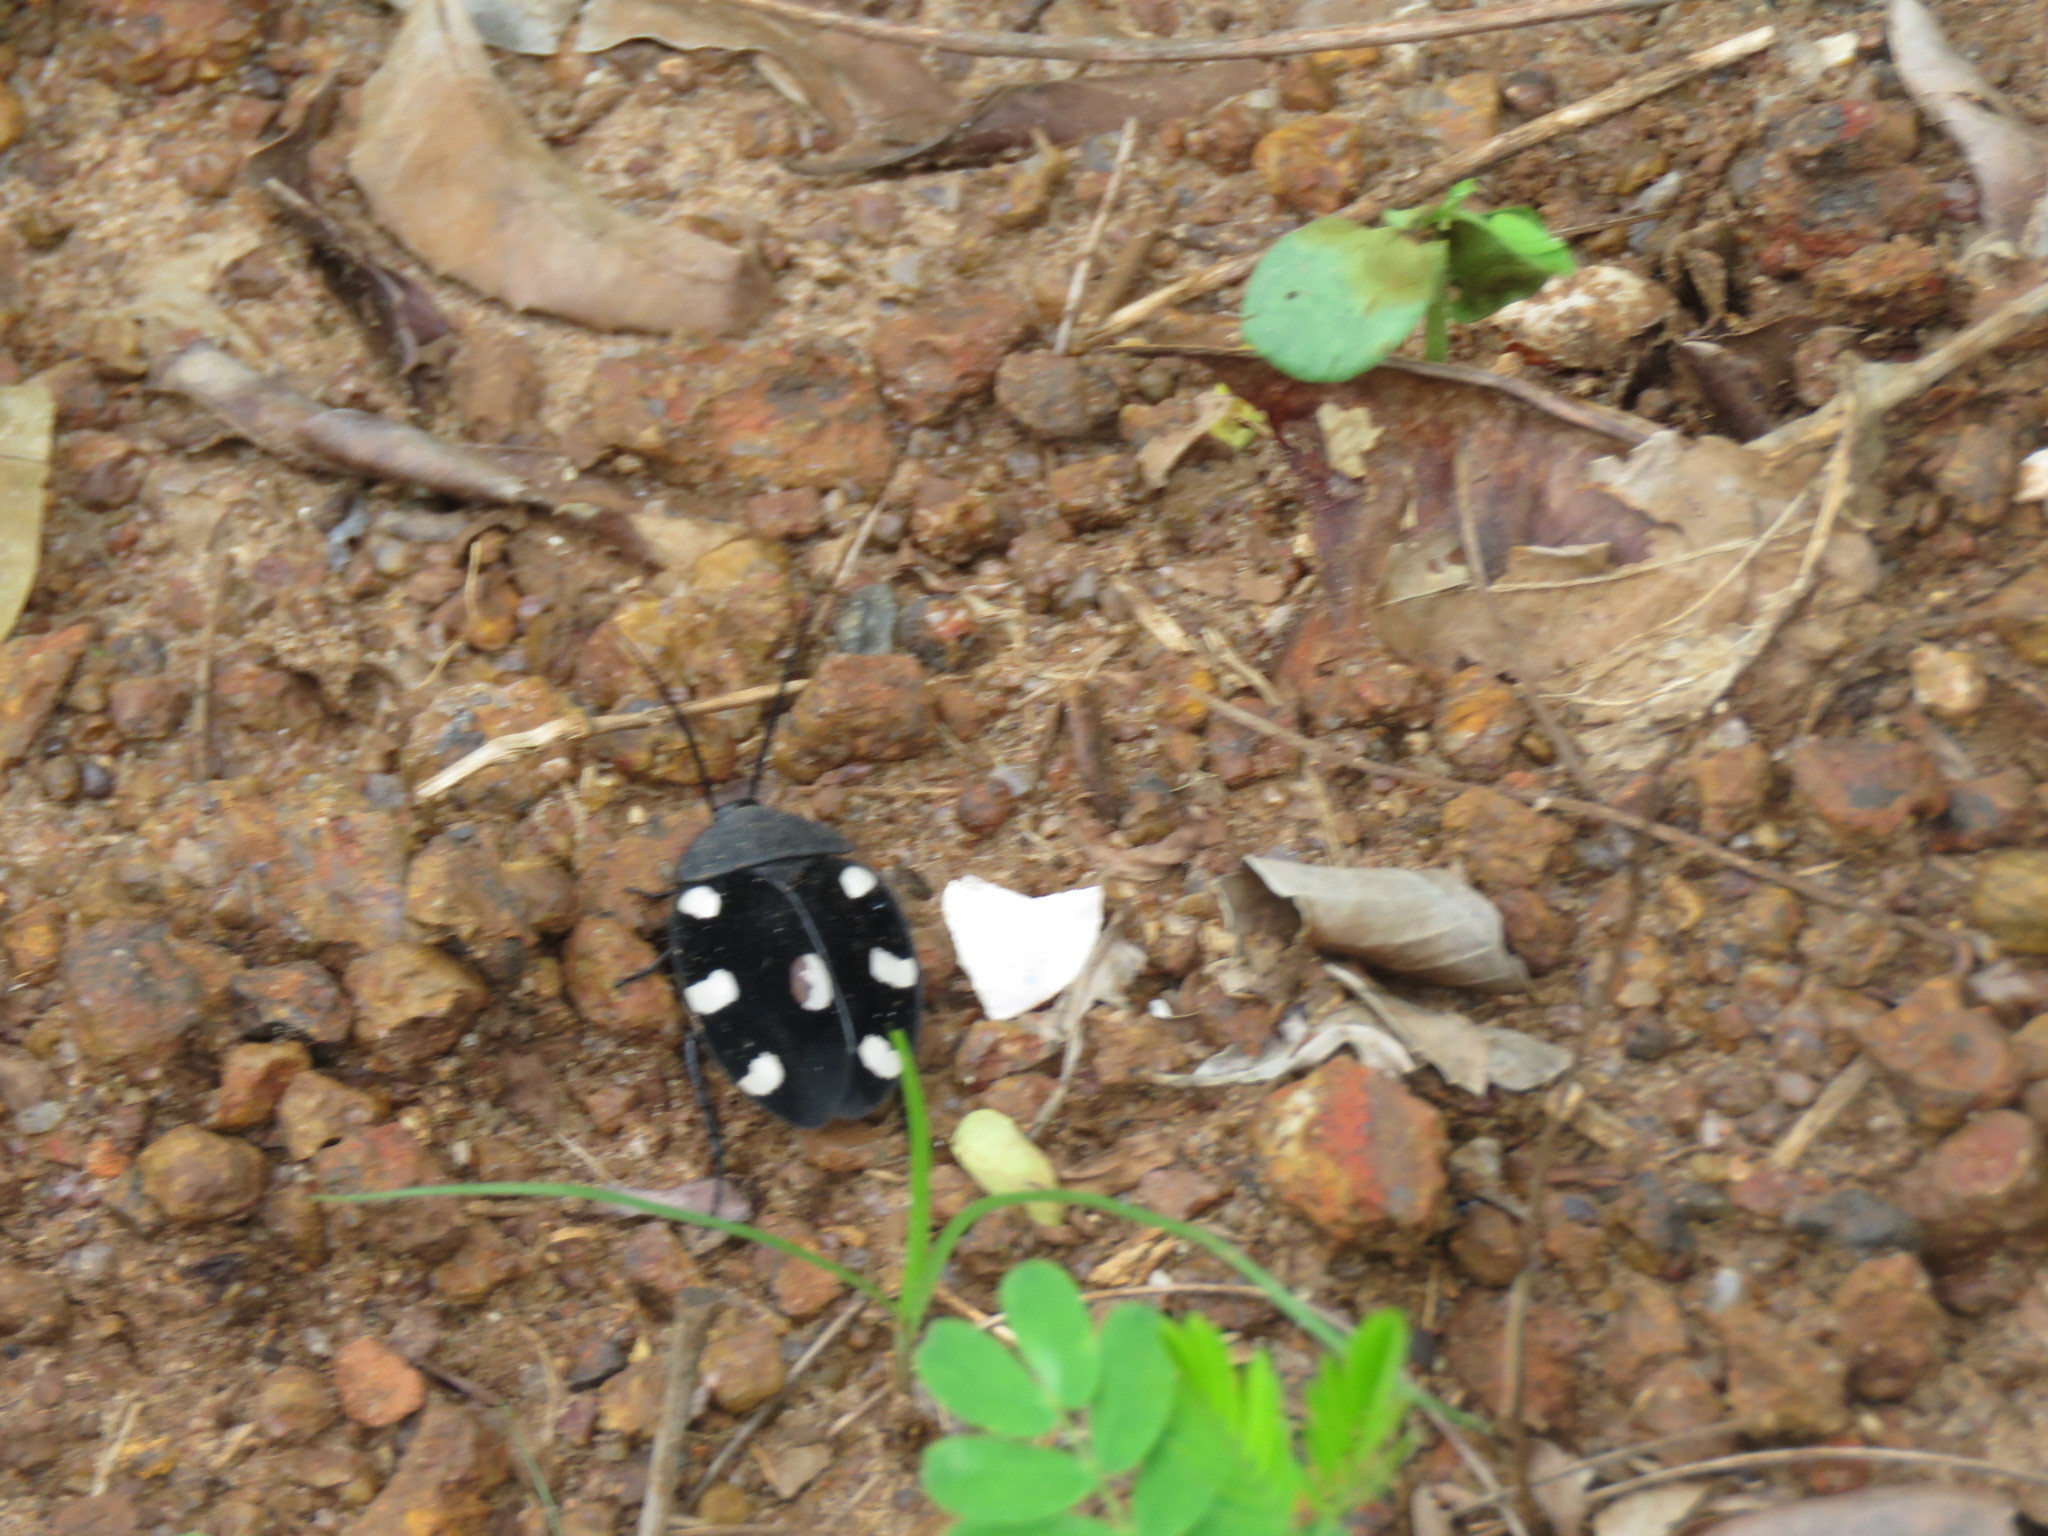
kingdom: Animalia
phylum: Arthropoda
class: Insecta
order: Blattodea
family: Corydiidae
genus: Therea
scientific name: Therea petiveriana
